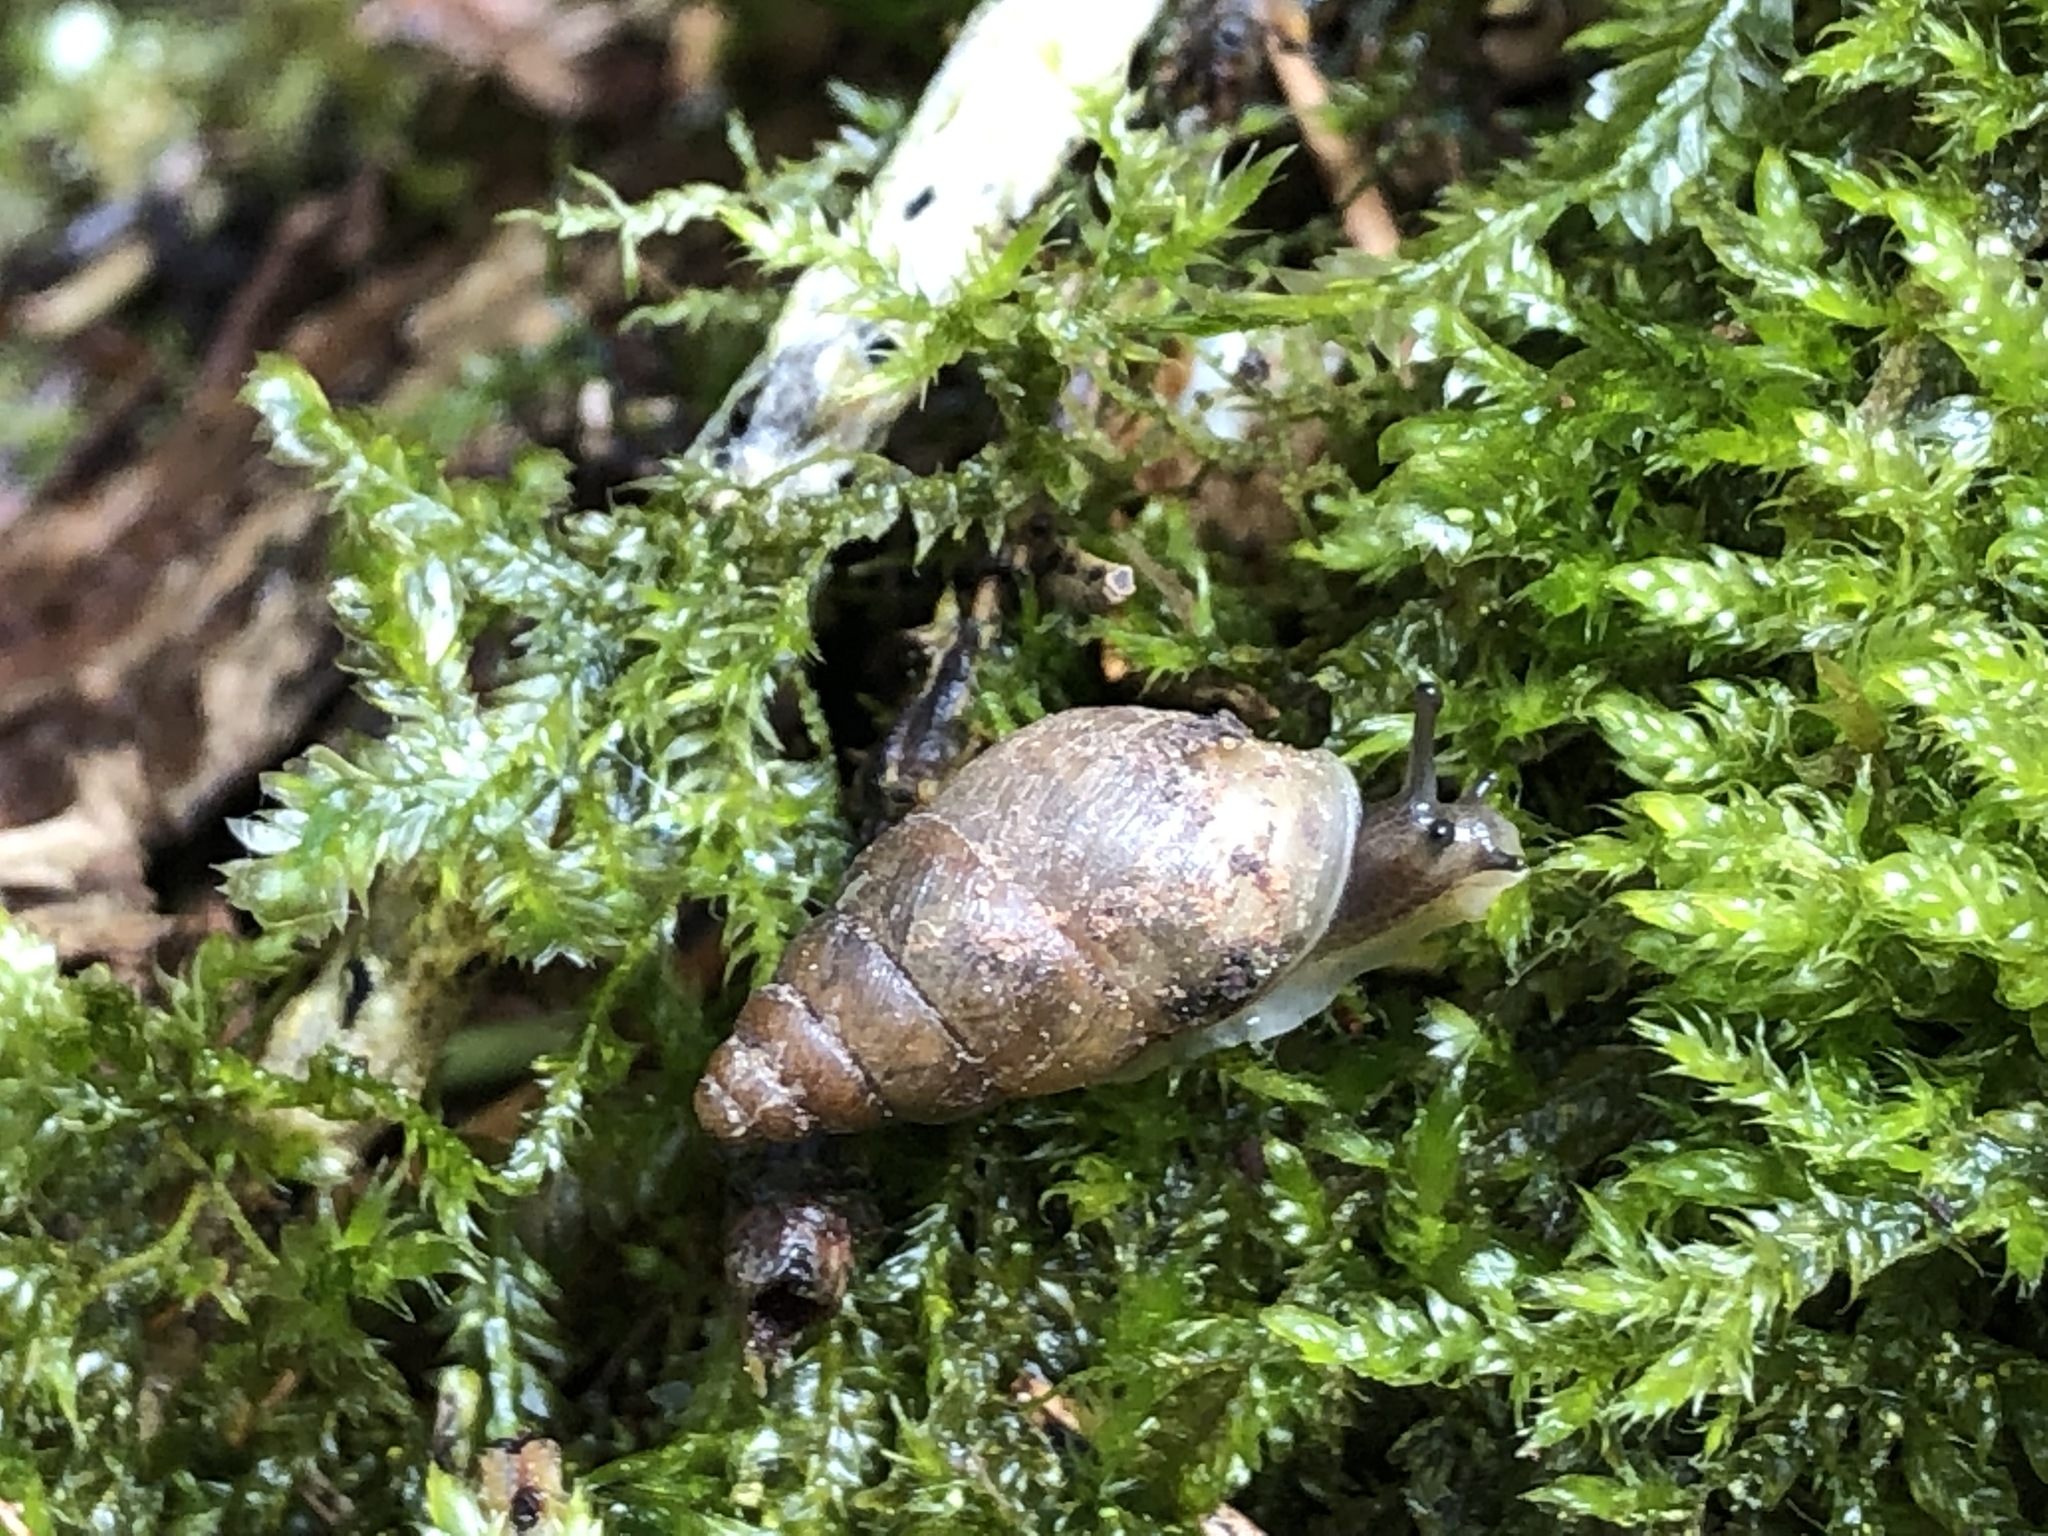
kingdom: Animalia
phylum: Mollusca
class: Gastropoda
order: Stylommatophora
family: Enidae
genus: Merdigera
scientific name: Merdigera obscura
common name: Lesser bulin
